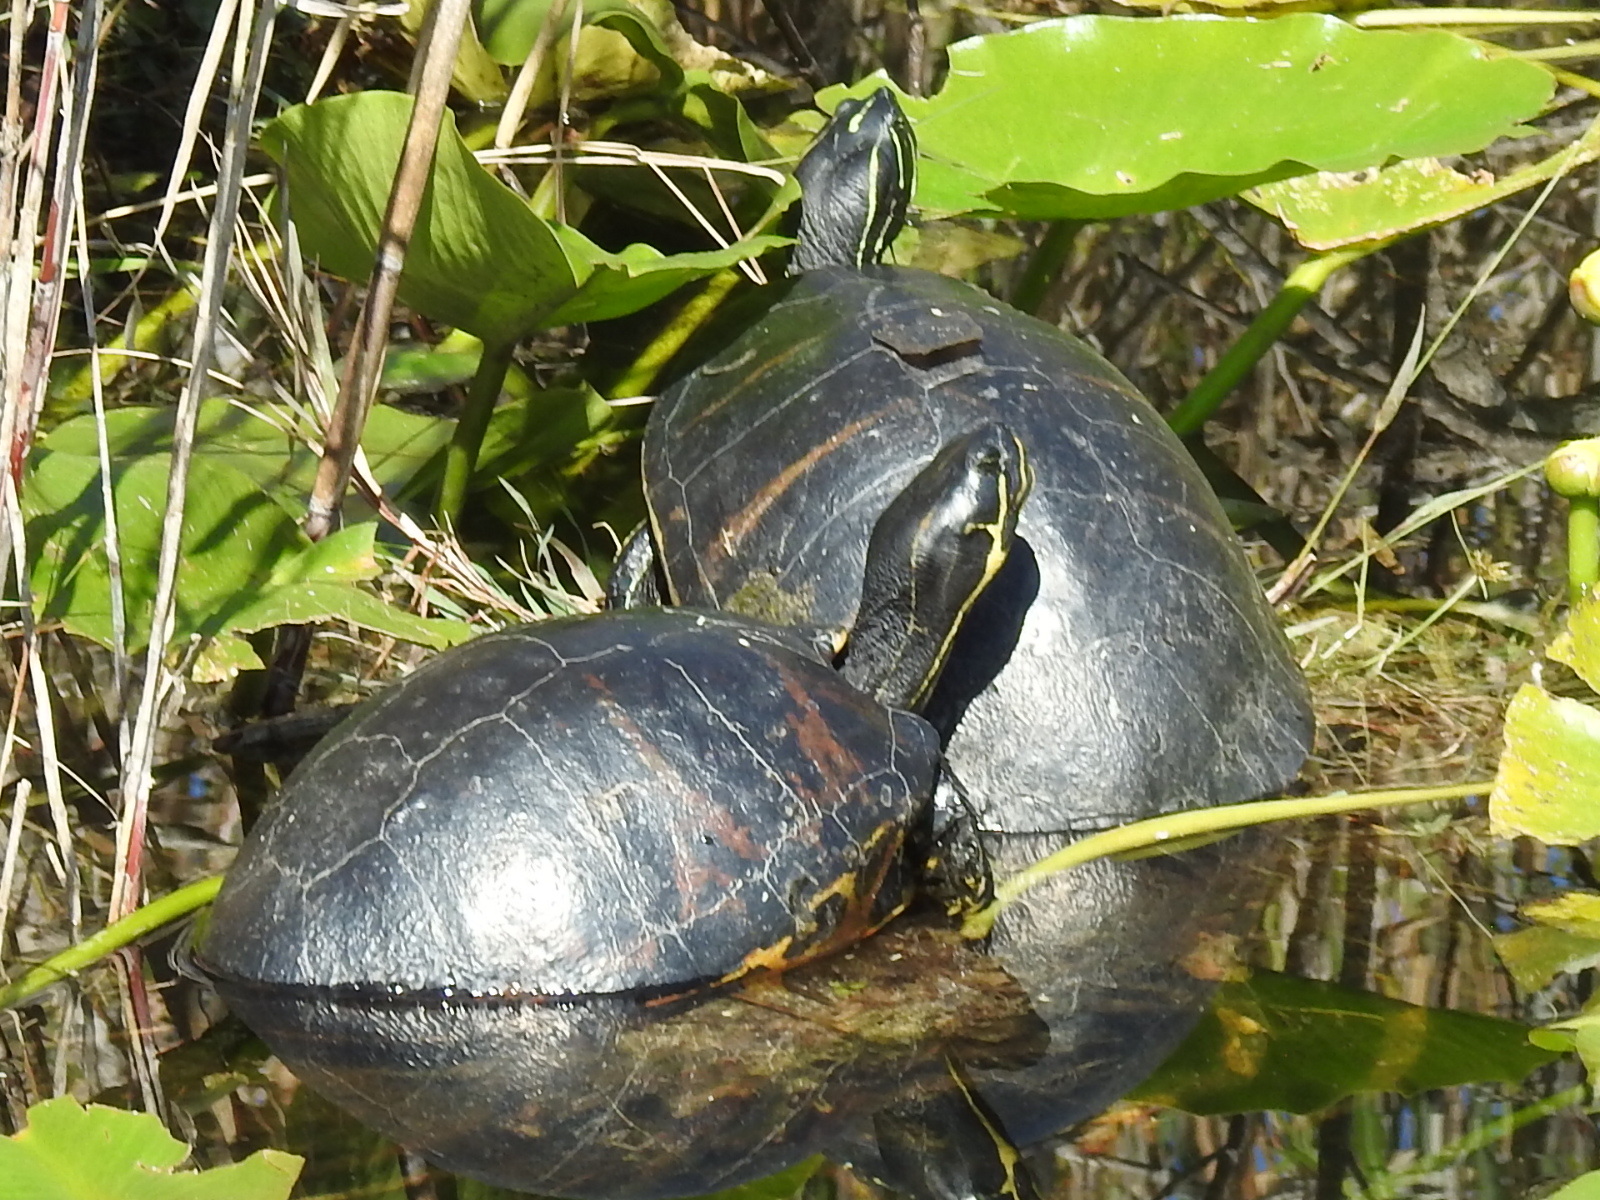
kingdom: Animalia
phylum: Chordata
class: Testudines
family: Emydidae
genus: Pseudemys
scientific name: Pseudemys nelsoni
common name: Florida red-bellied turtle
